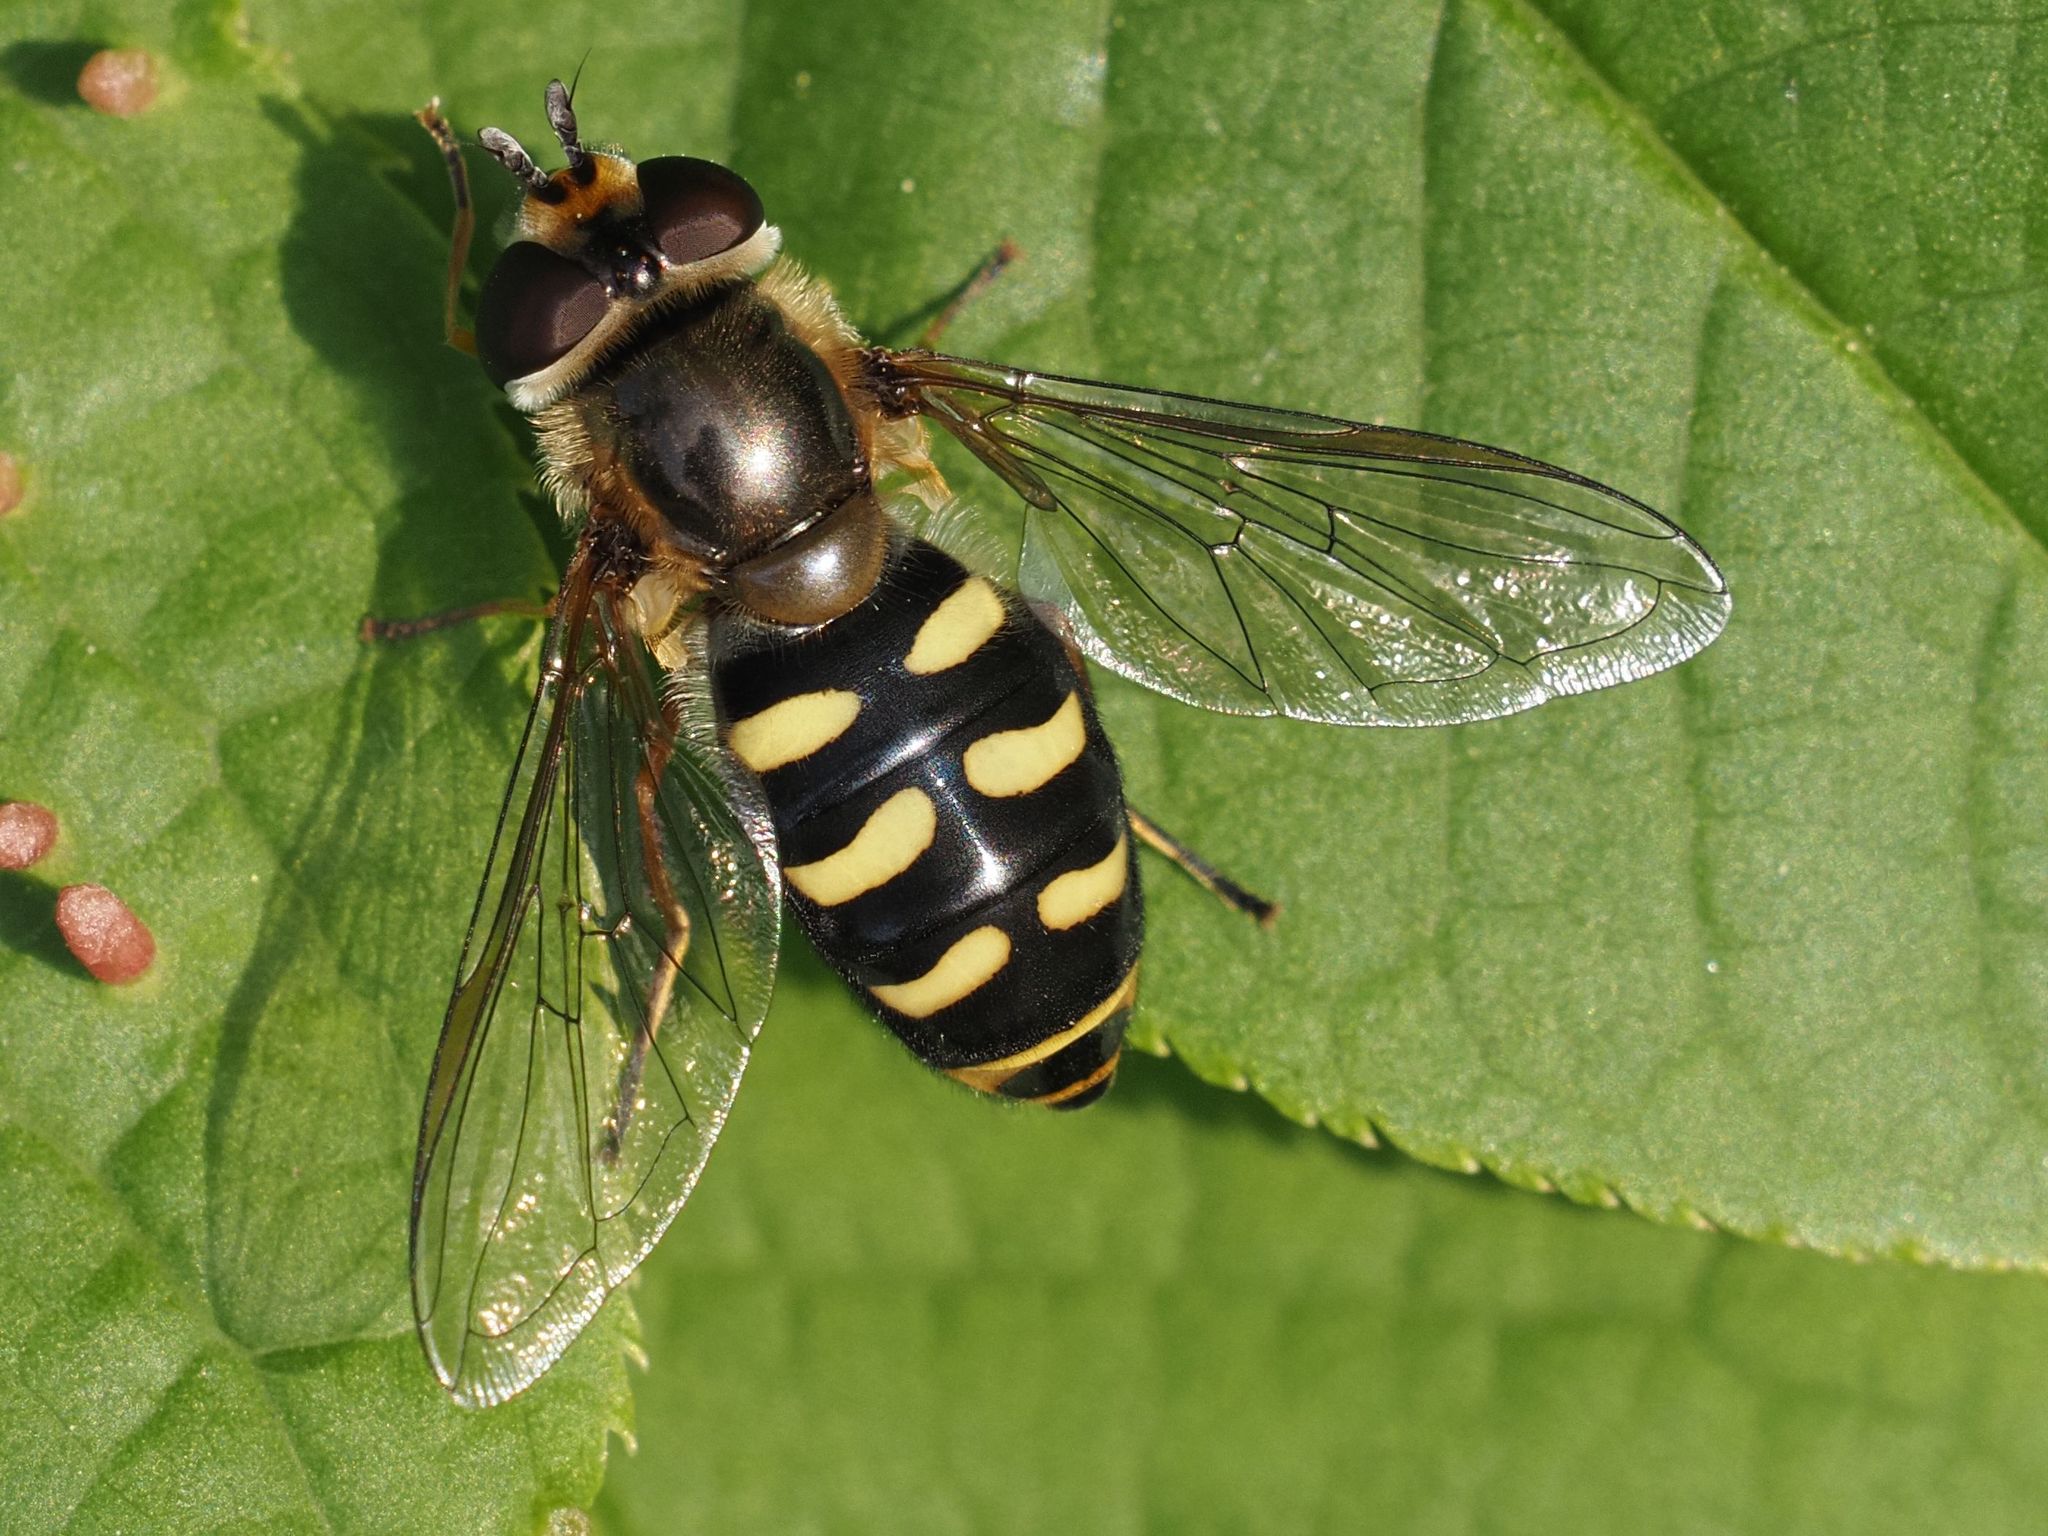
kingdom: Animalia
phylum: Arthropoda
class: Insecta
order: Diptera
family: Syrphidae
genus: Eupeodes
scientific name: Eupeodes luniger
